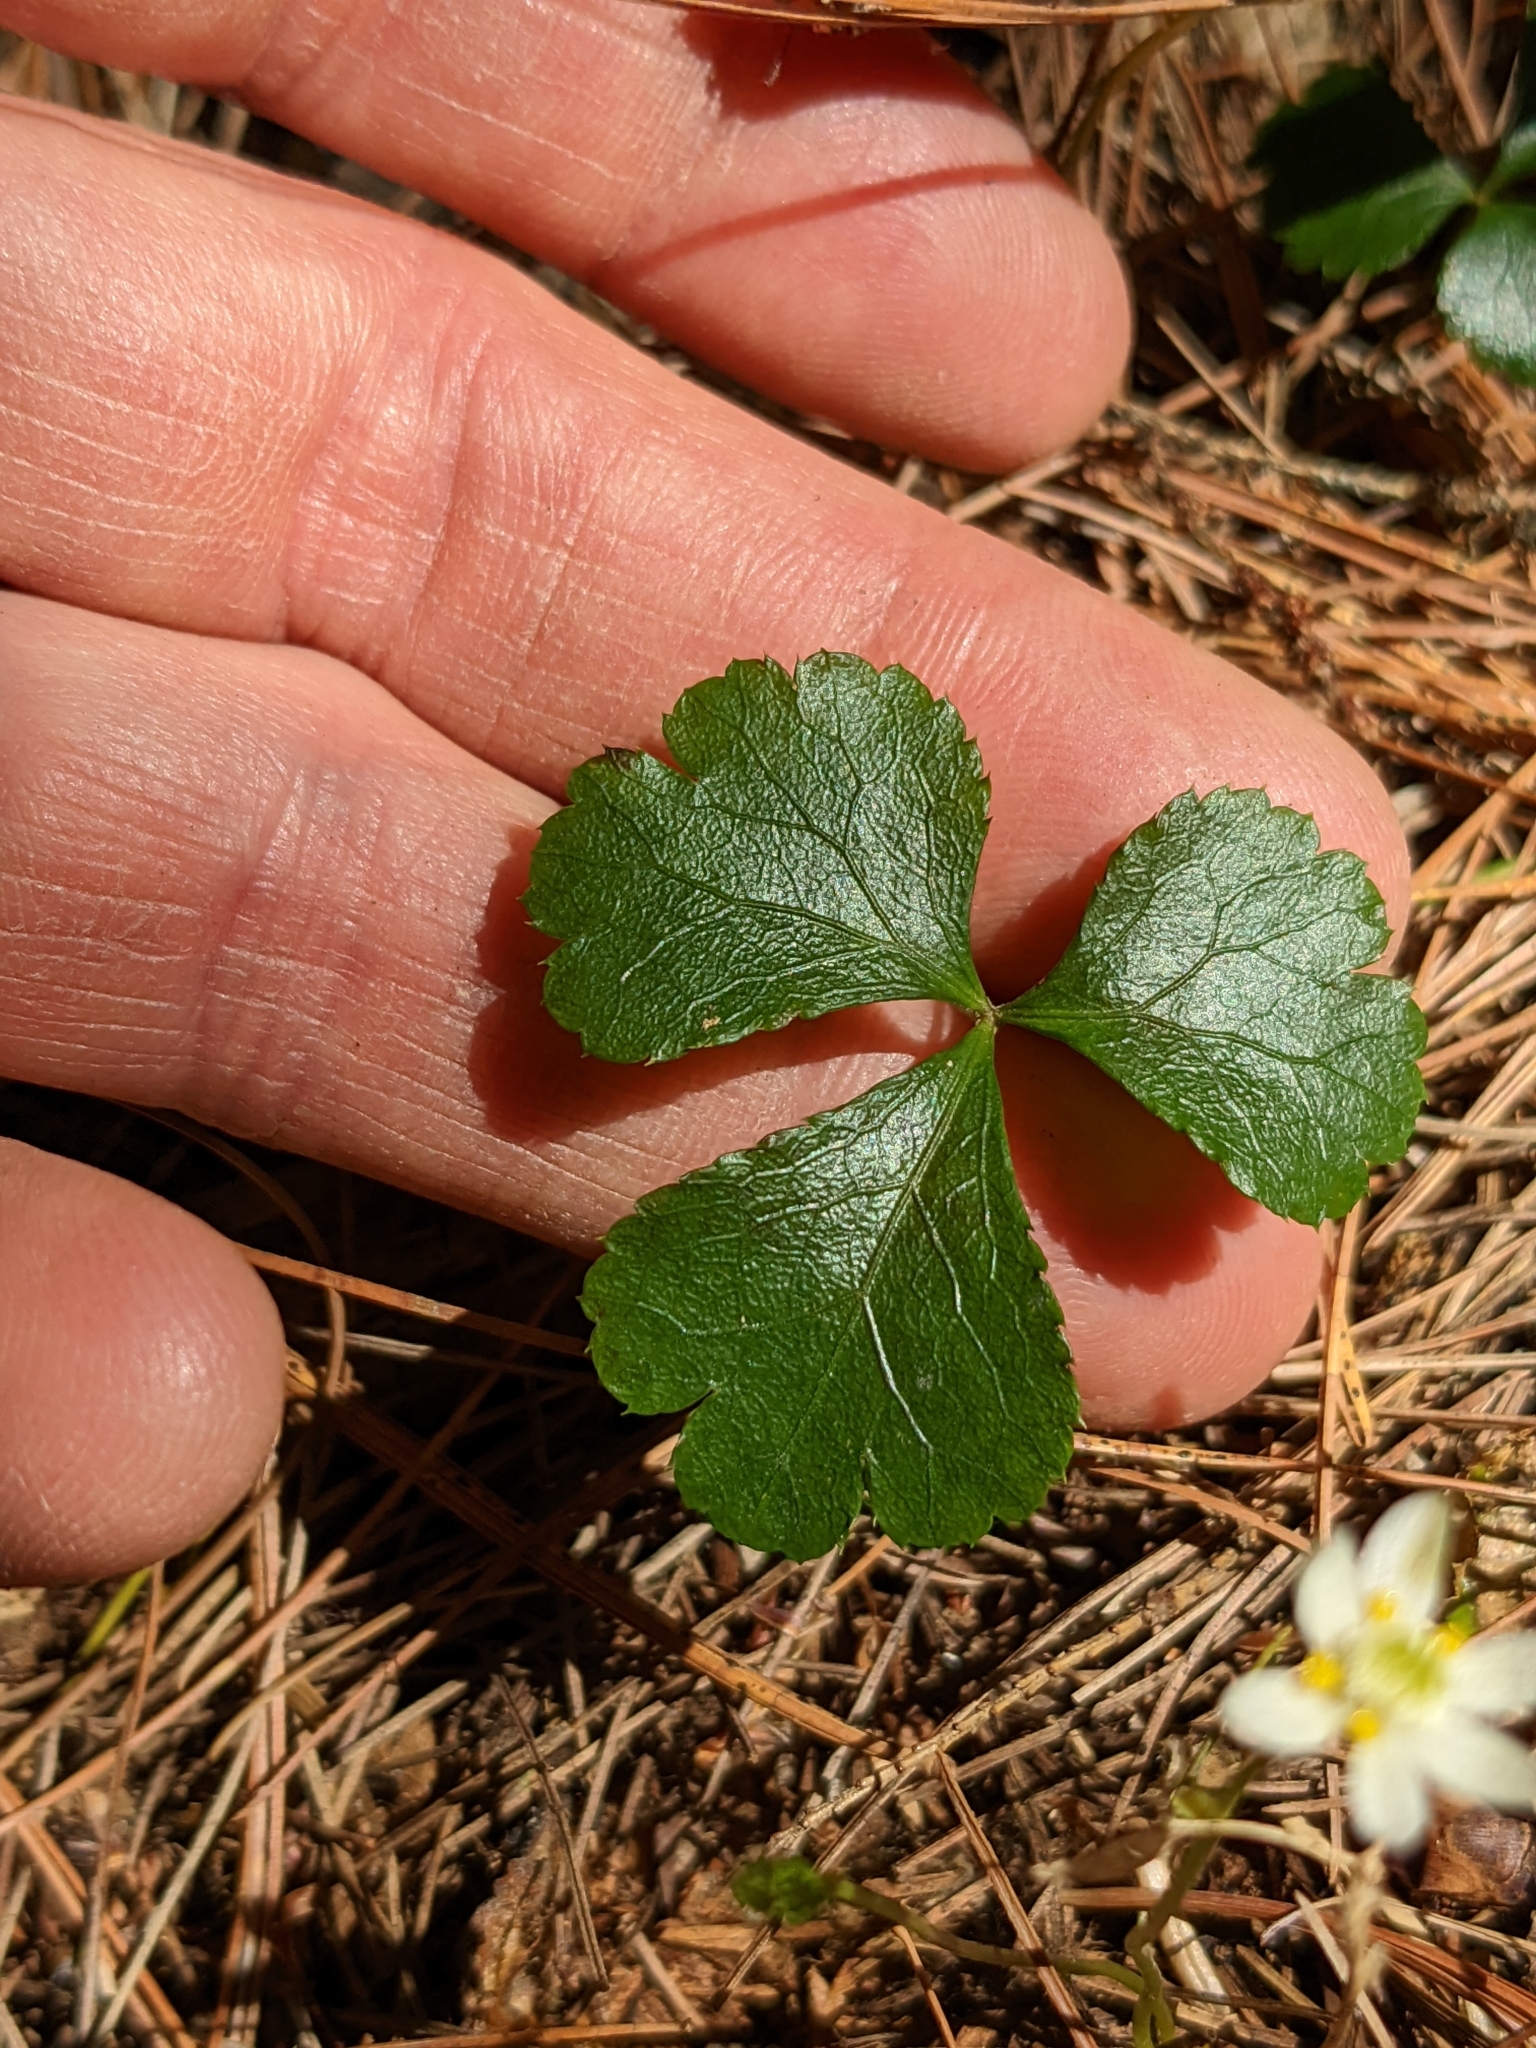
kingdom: Plantae
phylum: Tracheophyta
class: Magnoliopsida
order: Ranunculales
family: Ranunculaceae
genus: Coptis
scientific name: Coptis trifolia
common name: Canker-root
